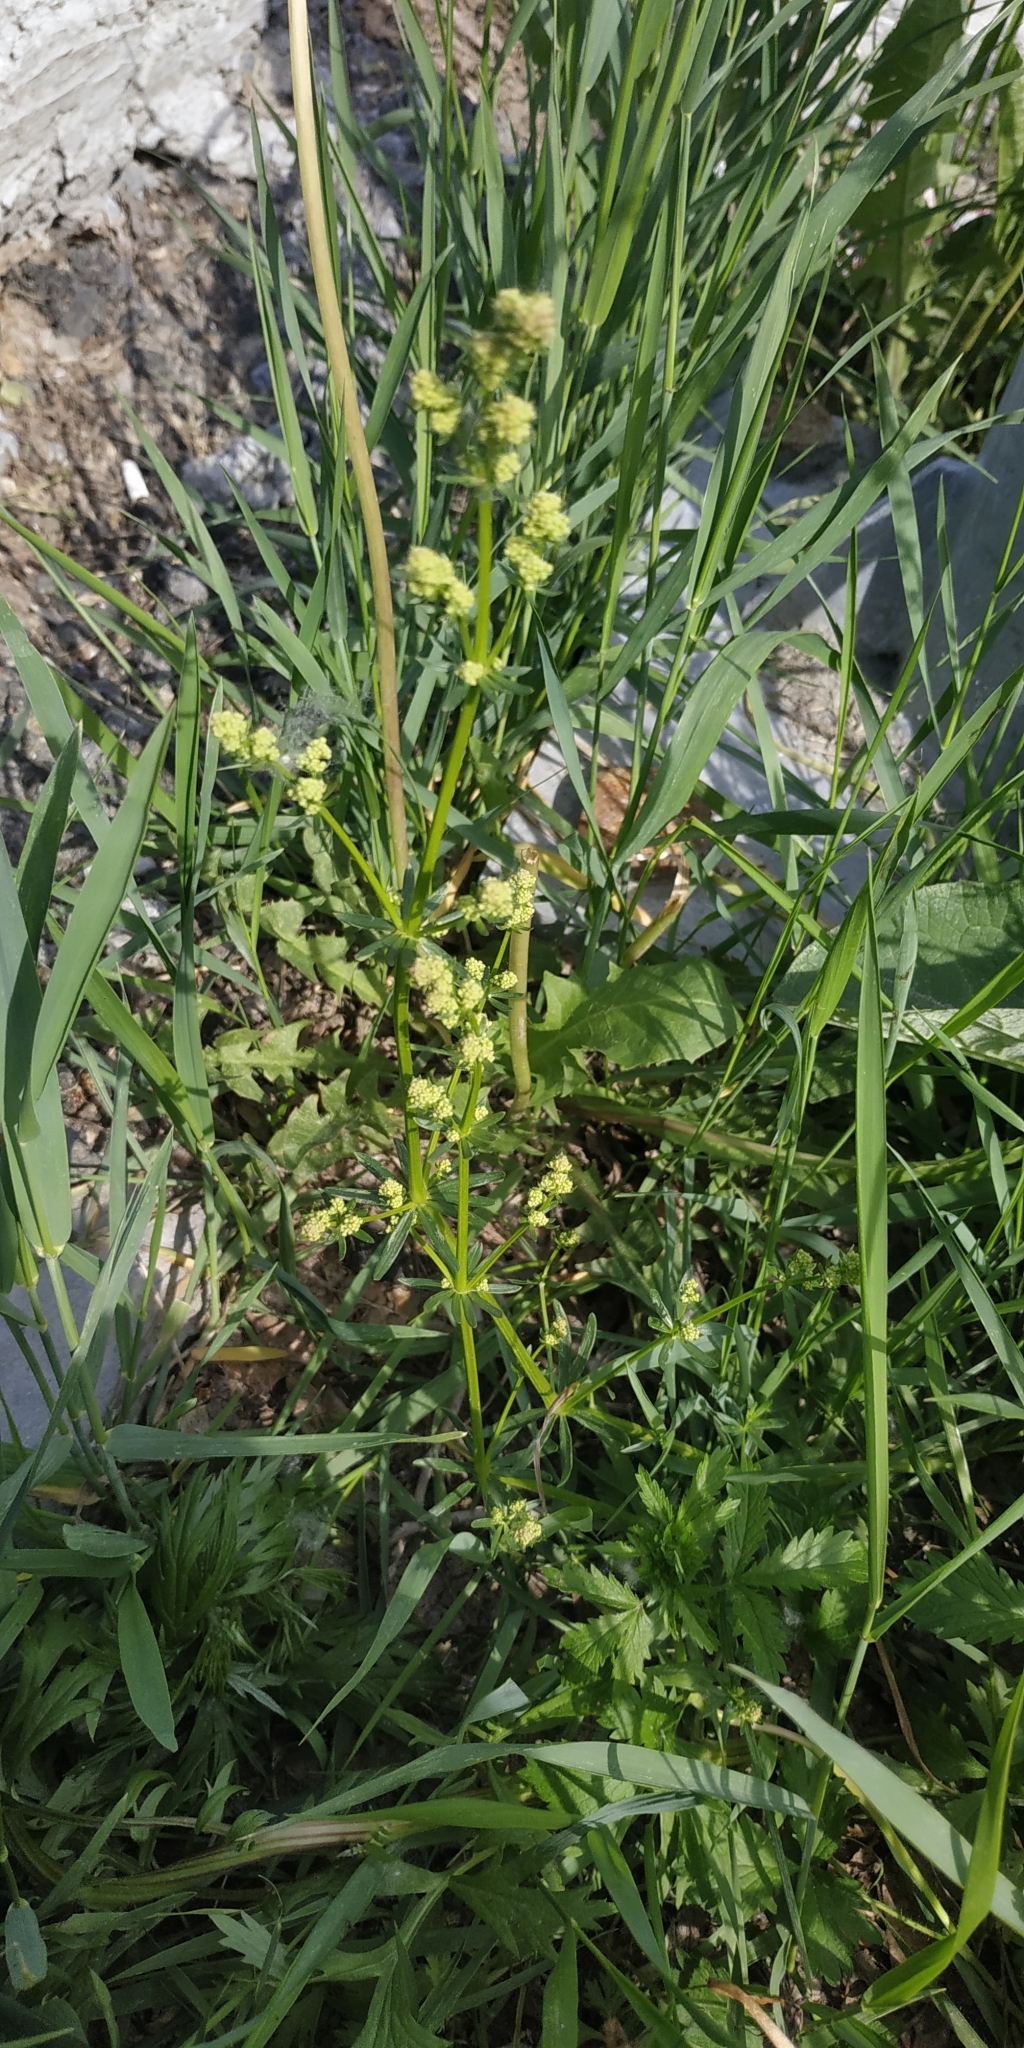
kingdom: Plantae
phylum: Tracheophyta
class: Magnoliopsida
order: Gentianales
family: Rubiaceae
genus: Galium
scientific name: Galium mollugo
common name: Hedge bedstraw
